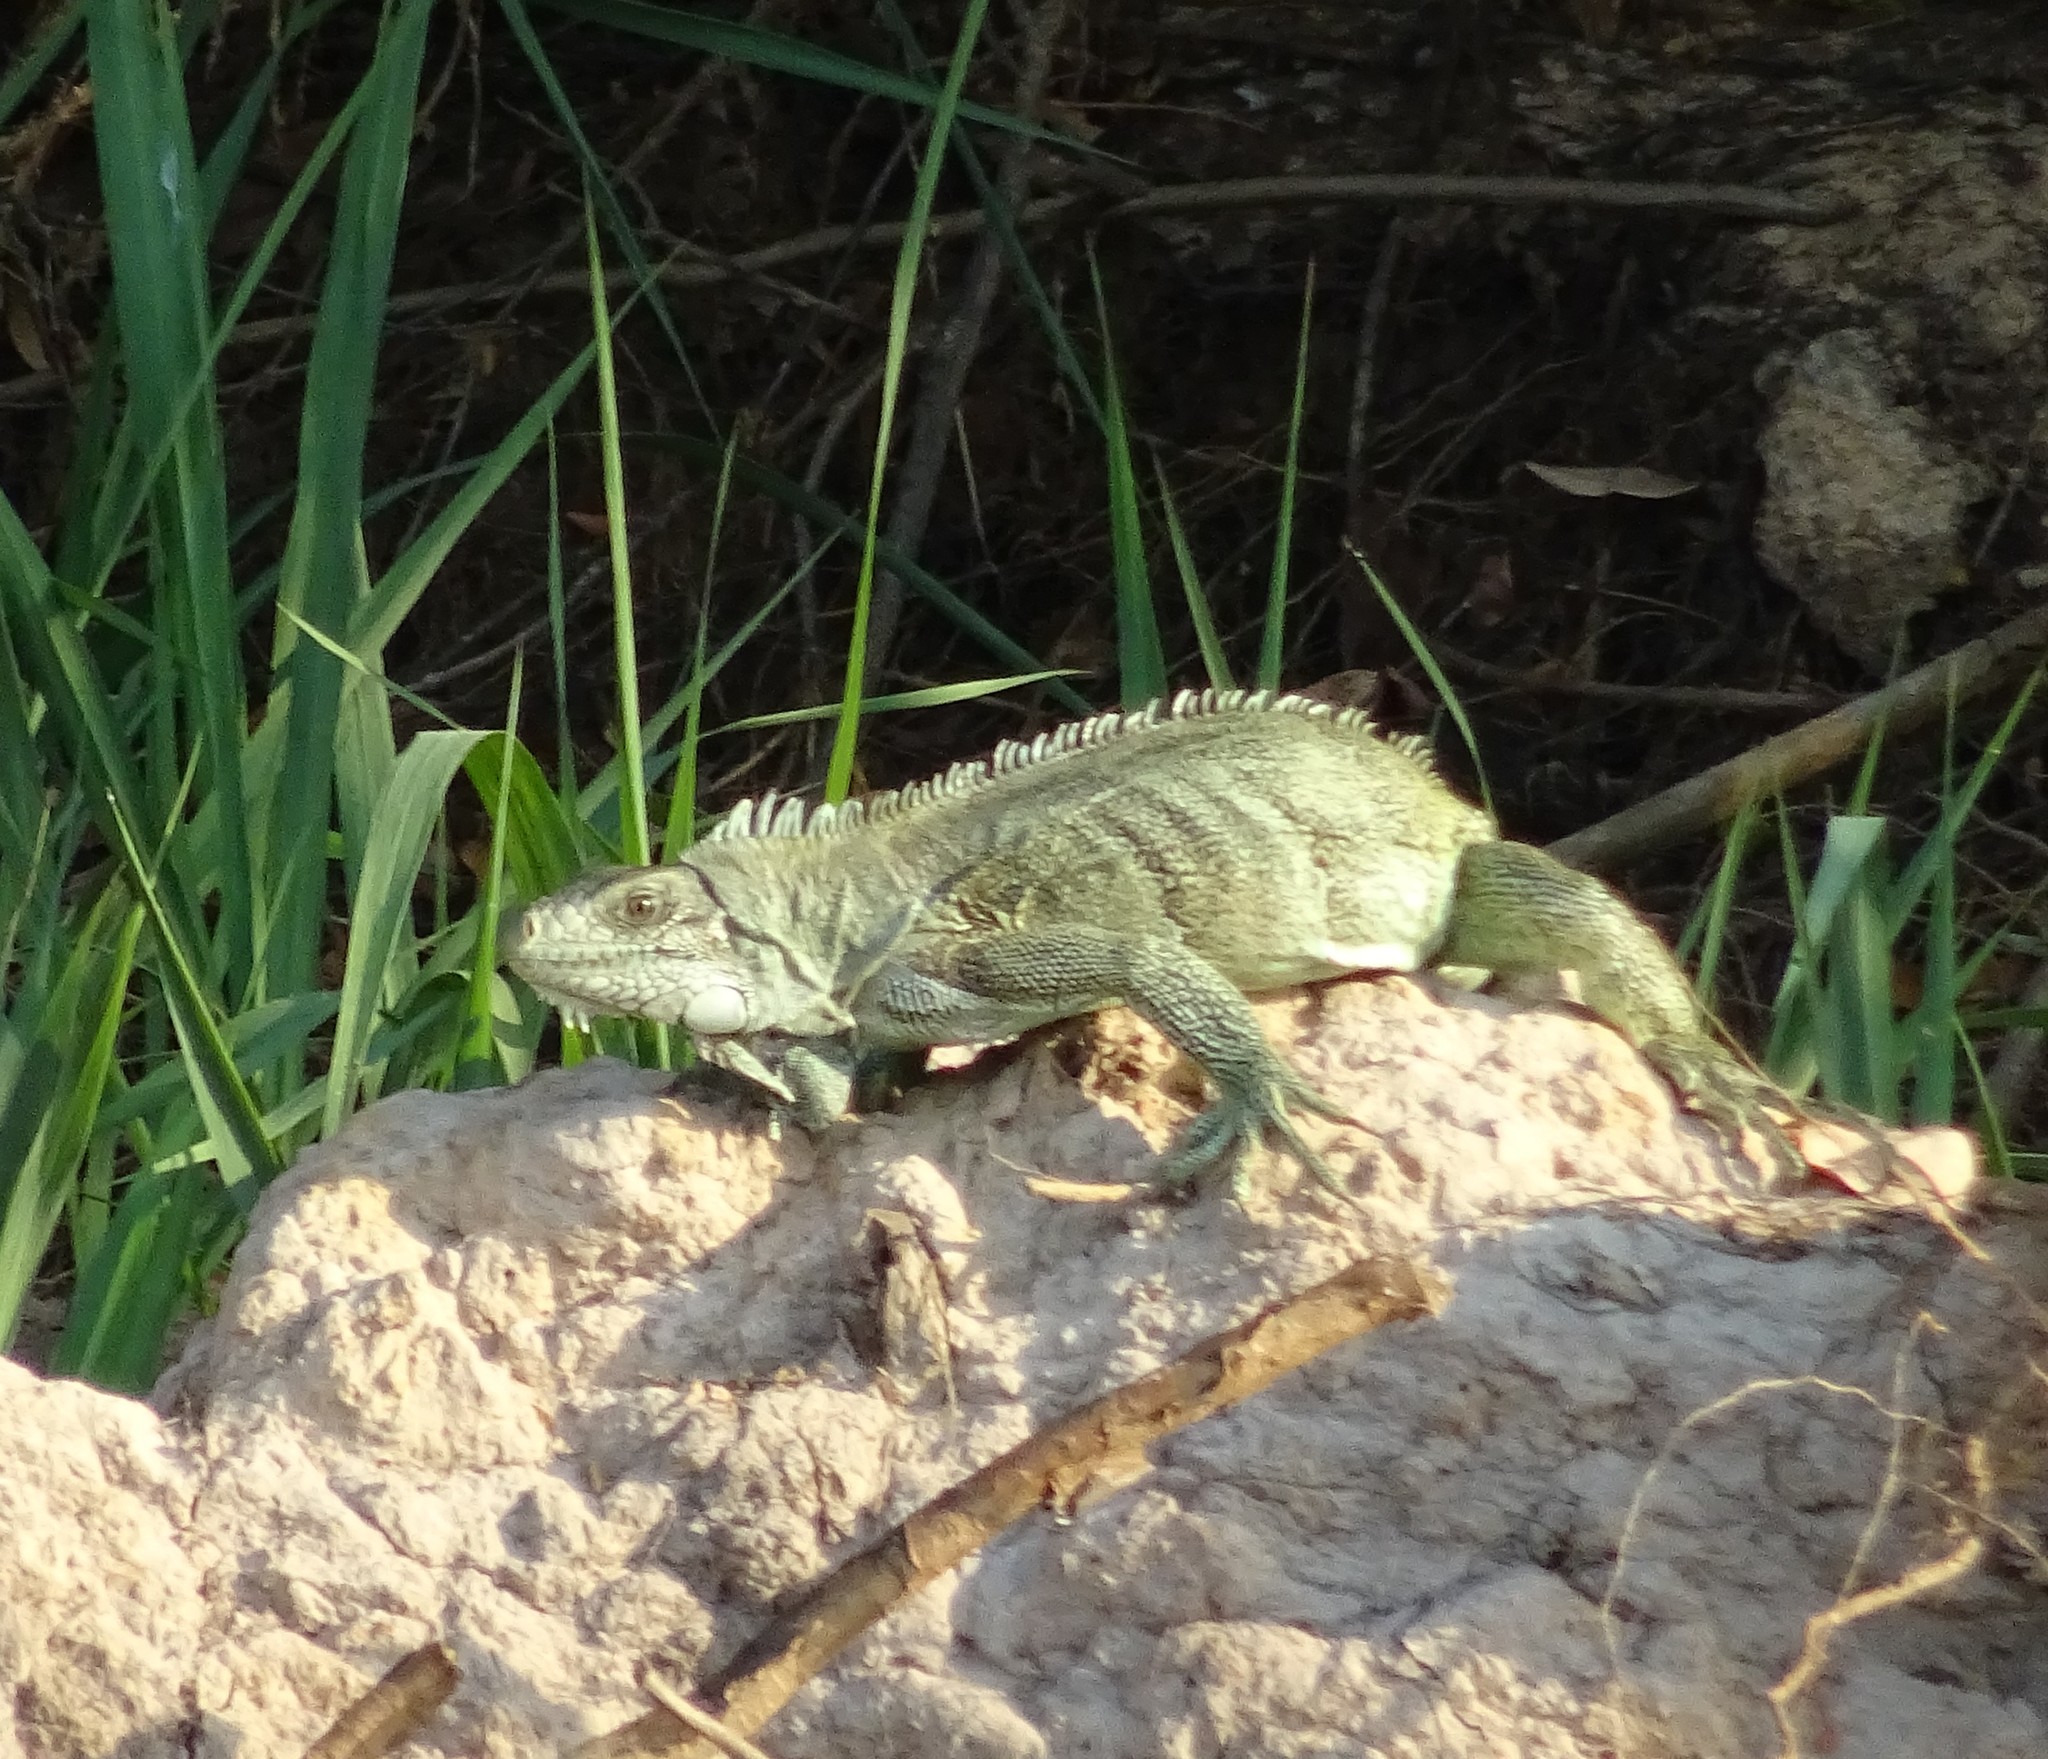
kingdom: Animalia
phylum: Chordata
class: Squamata
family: Iguanidae
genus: Iguana
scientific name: Iguana iguana
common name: Green iguana
